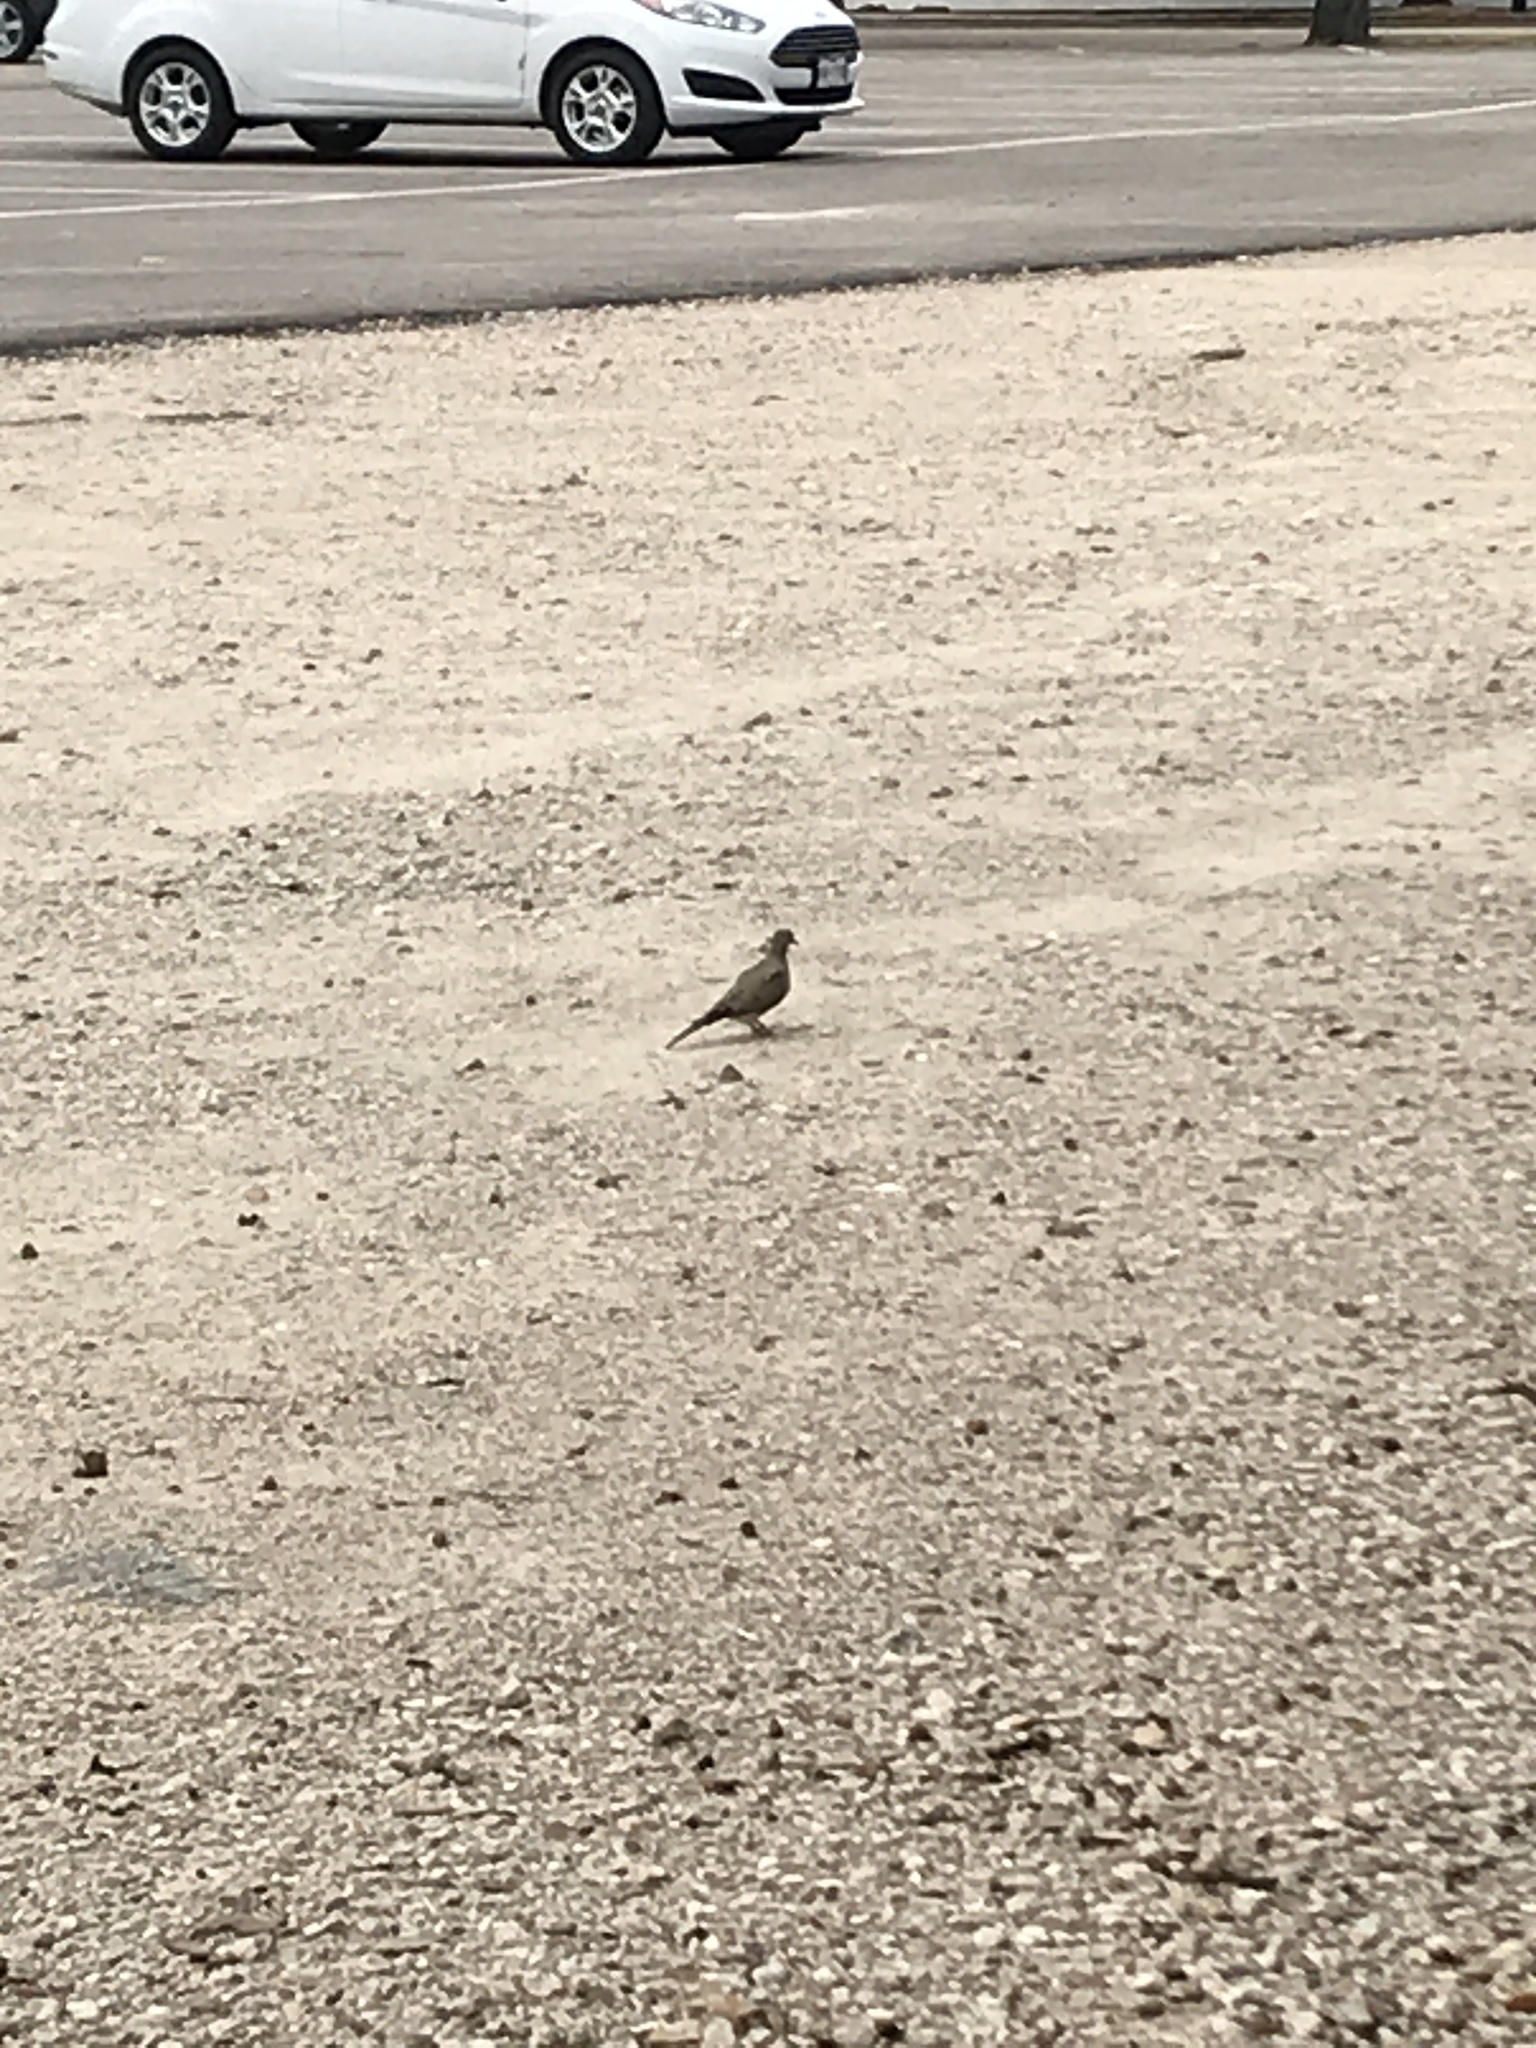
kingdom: Animalia
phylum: Chordata
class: Aves
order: Columbiformes
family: Columbidae
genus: Zenaida
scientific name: Zenaida macroura
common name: Mourning dove
